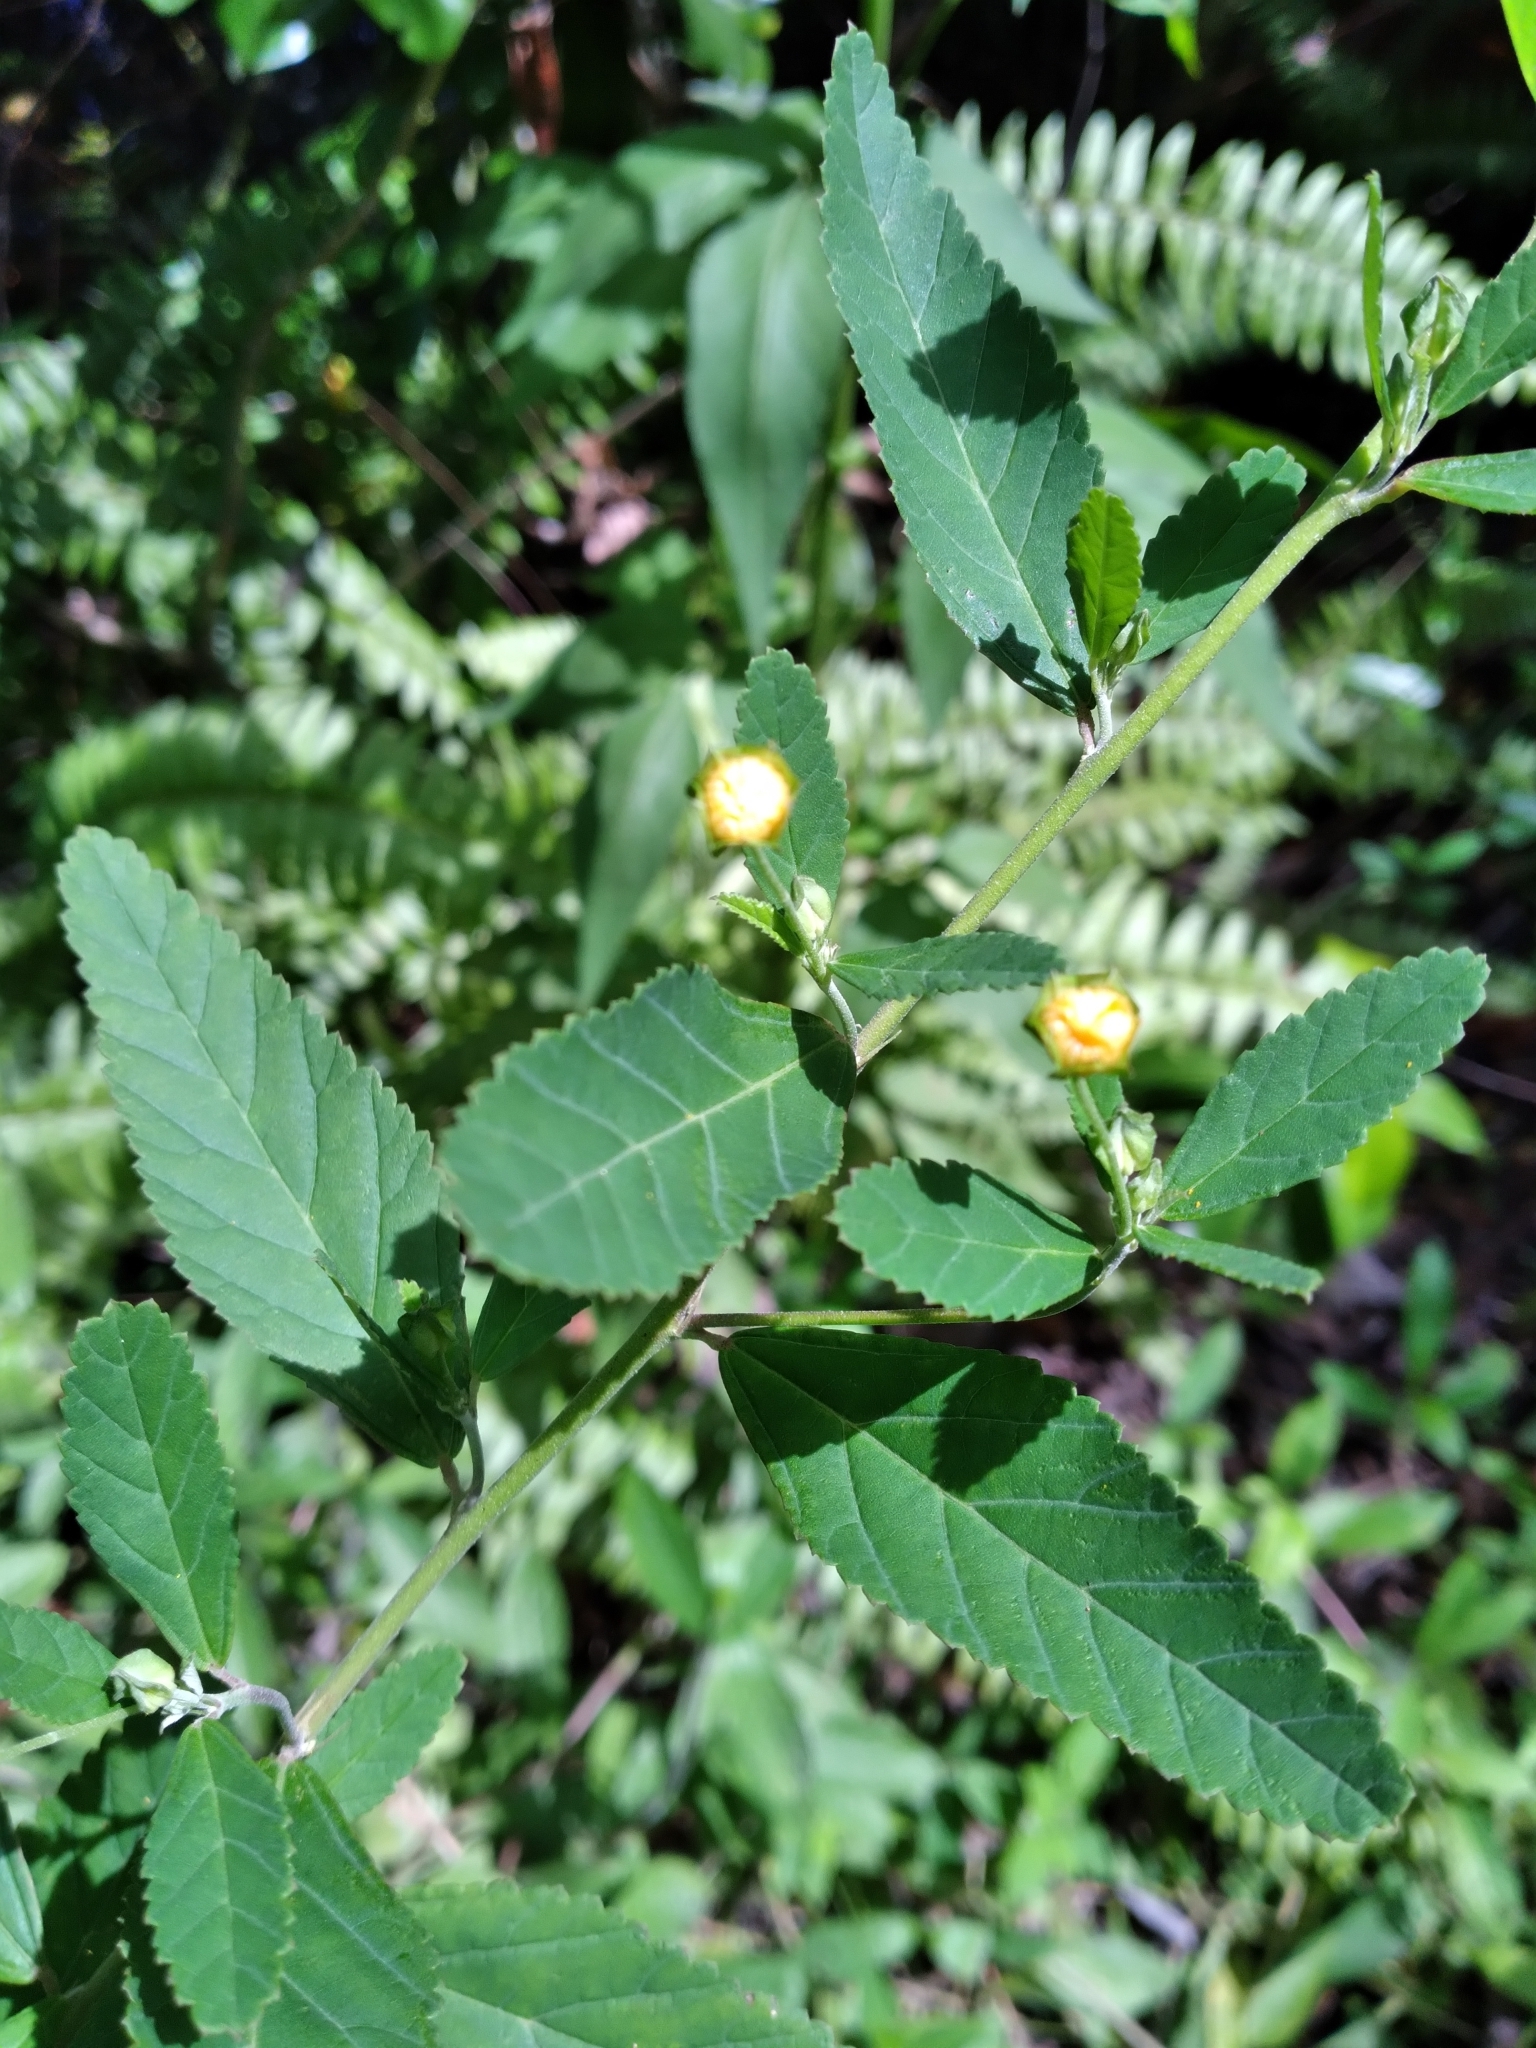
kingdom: Plantae
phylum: Tracheophyta
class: Magnoliopsida
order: Malvales
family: Malvaceae
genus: Sida
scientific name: Sida rhombifolia
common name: Queensland-hemp
